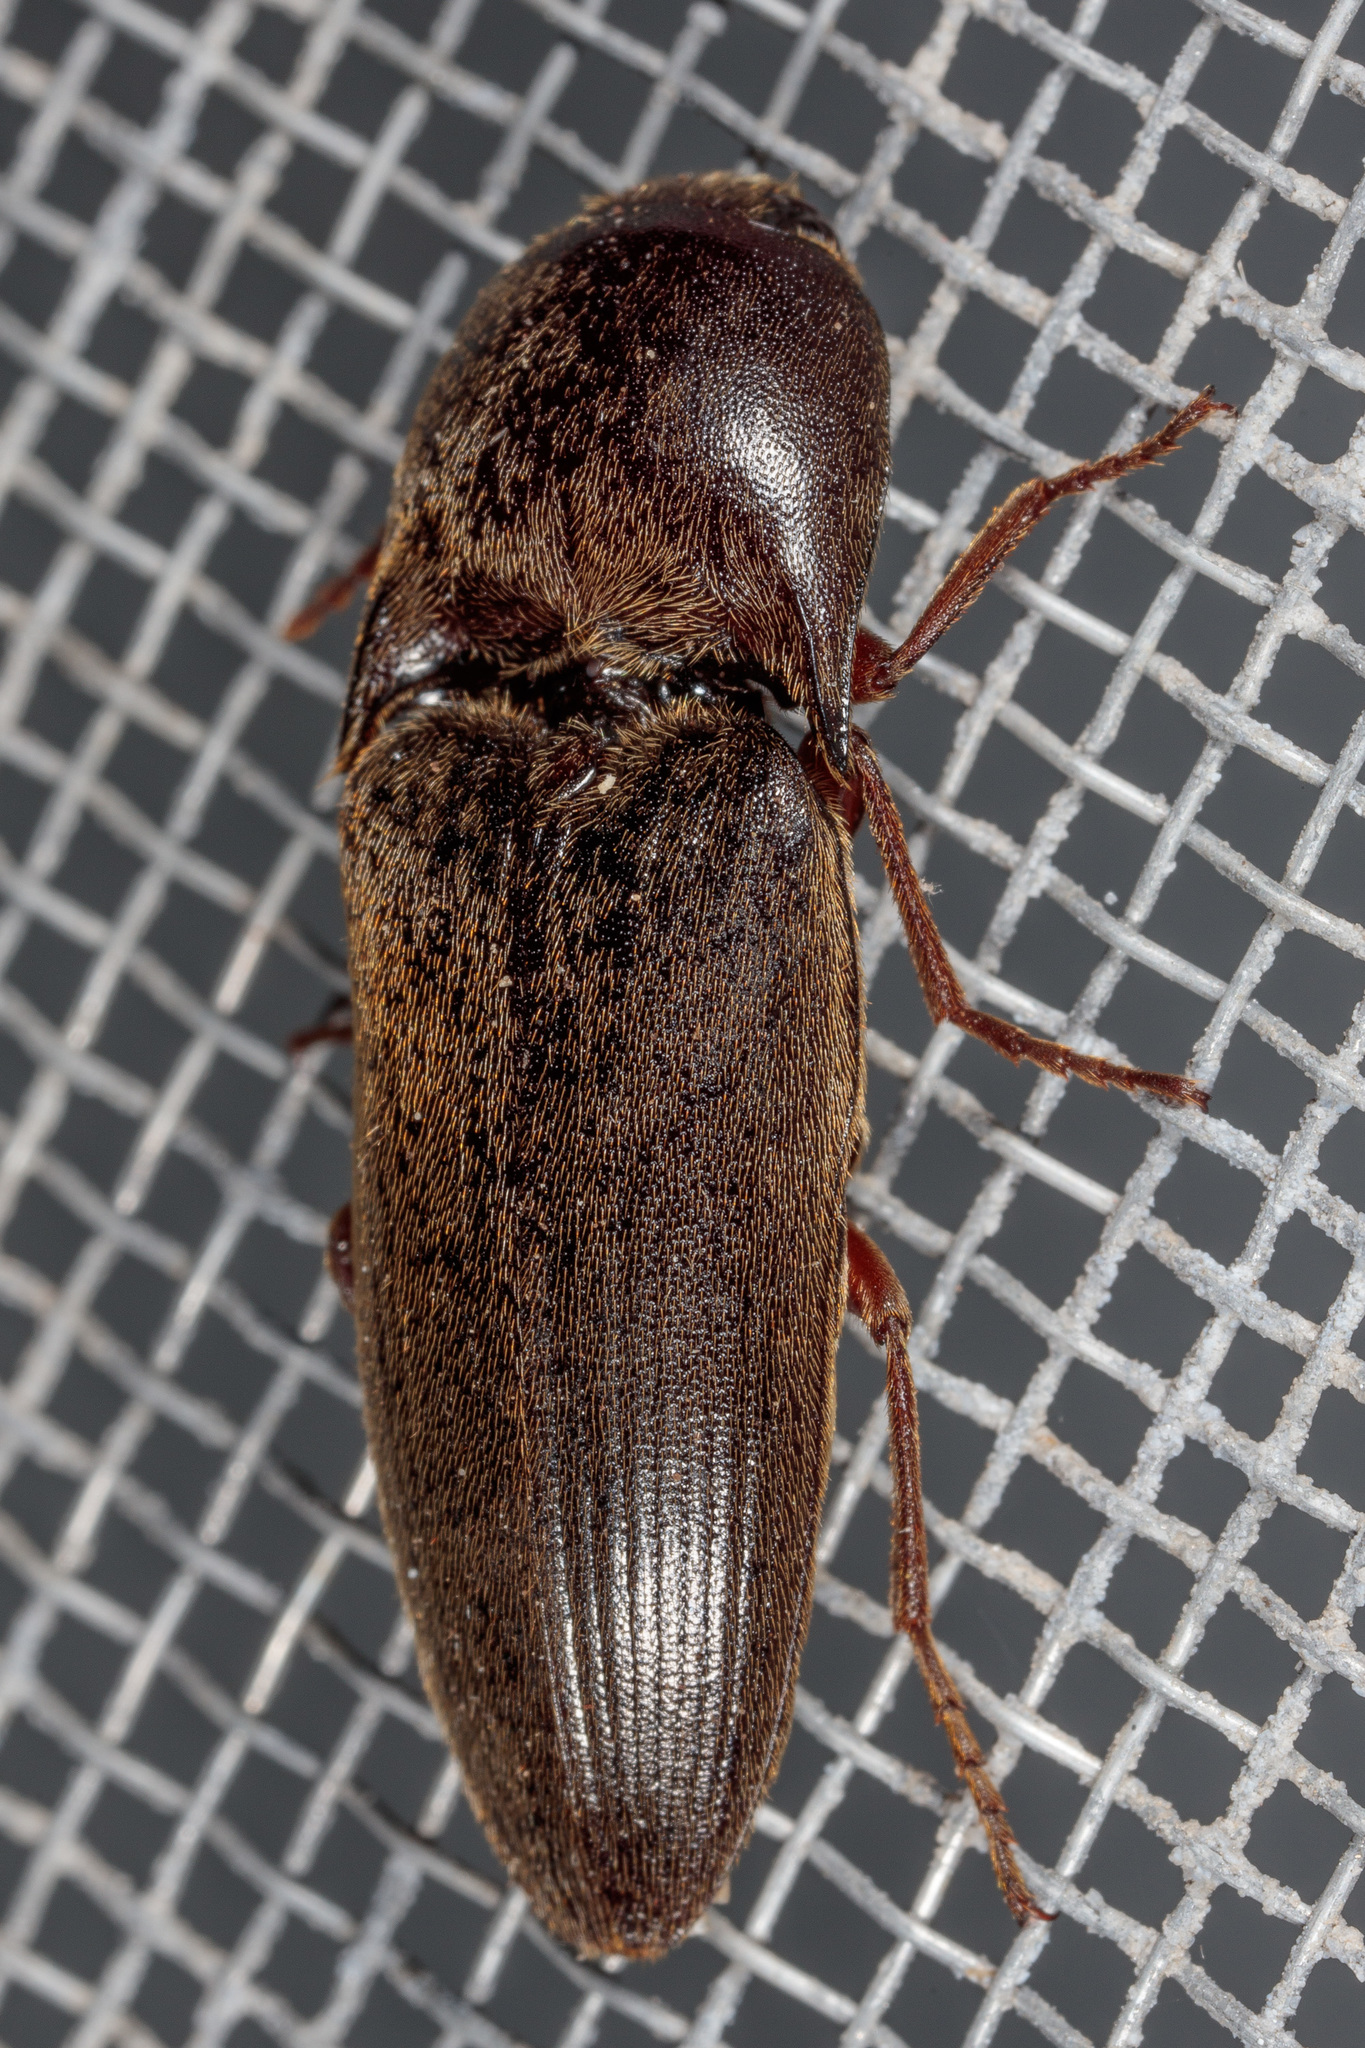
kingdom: Animalia
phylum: Arthropoda
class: Insecta
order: Coleoptera
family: Elateridae
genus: Diplostethus
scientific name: Diplostethus
